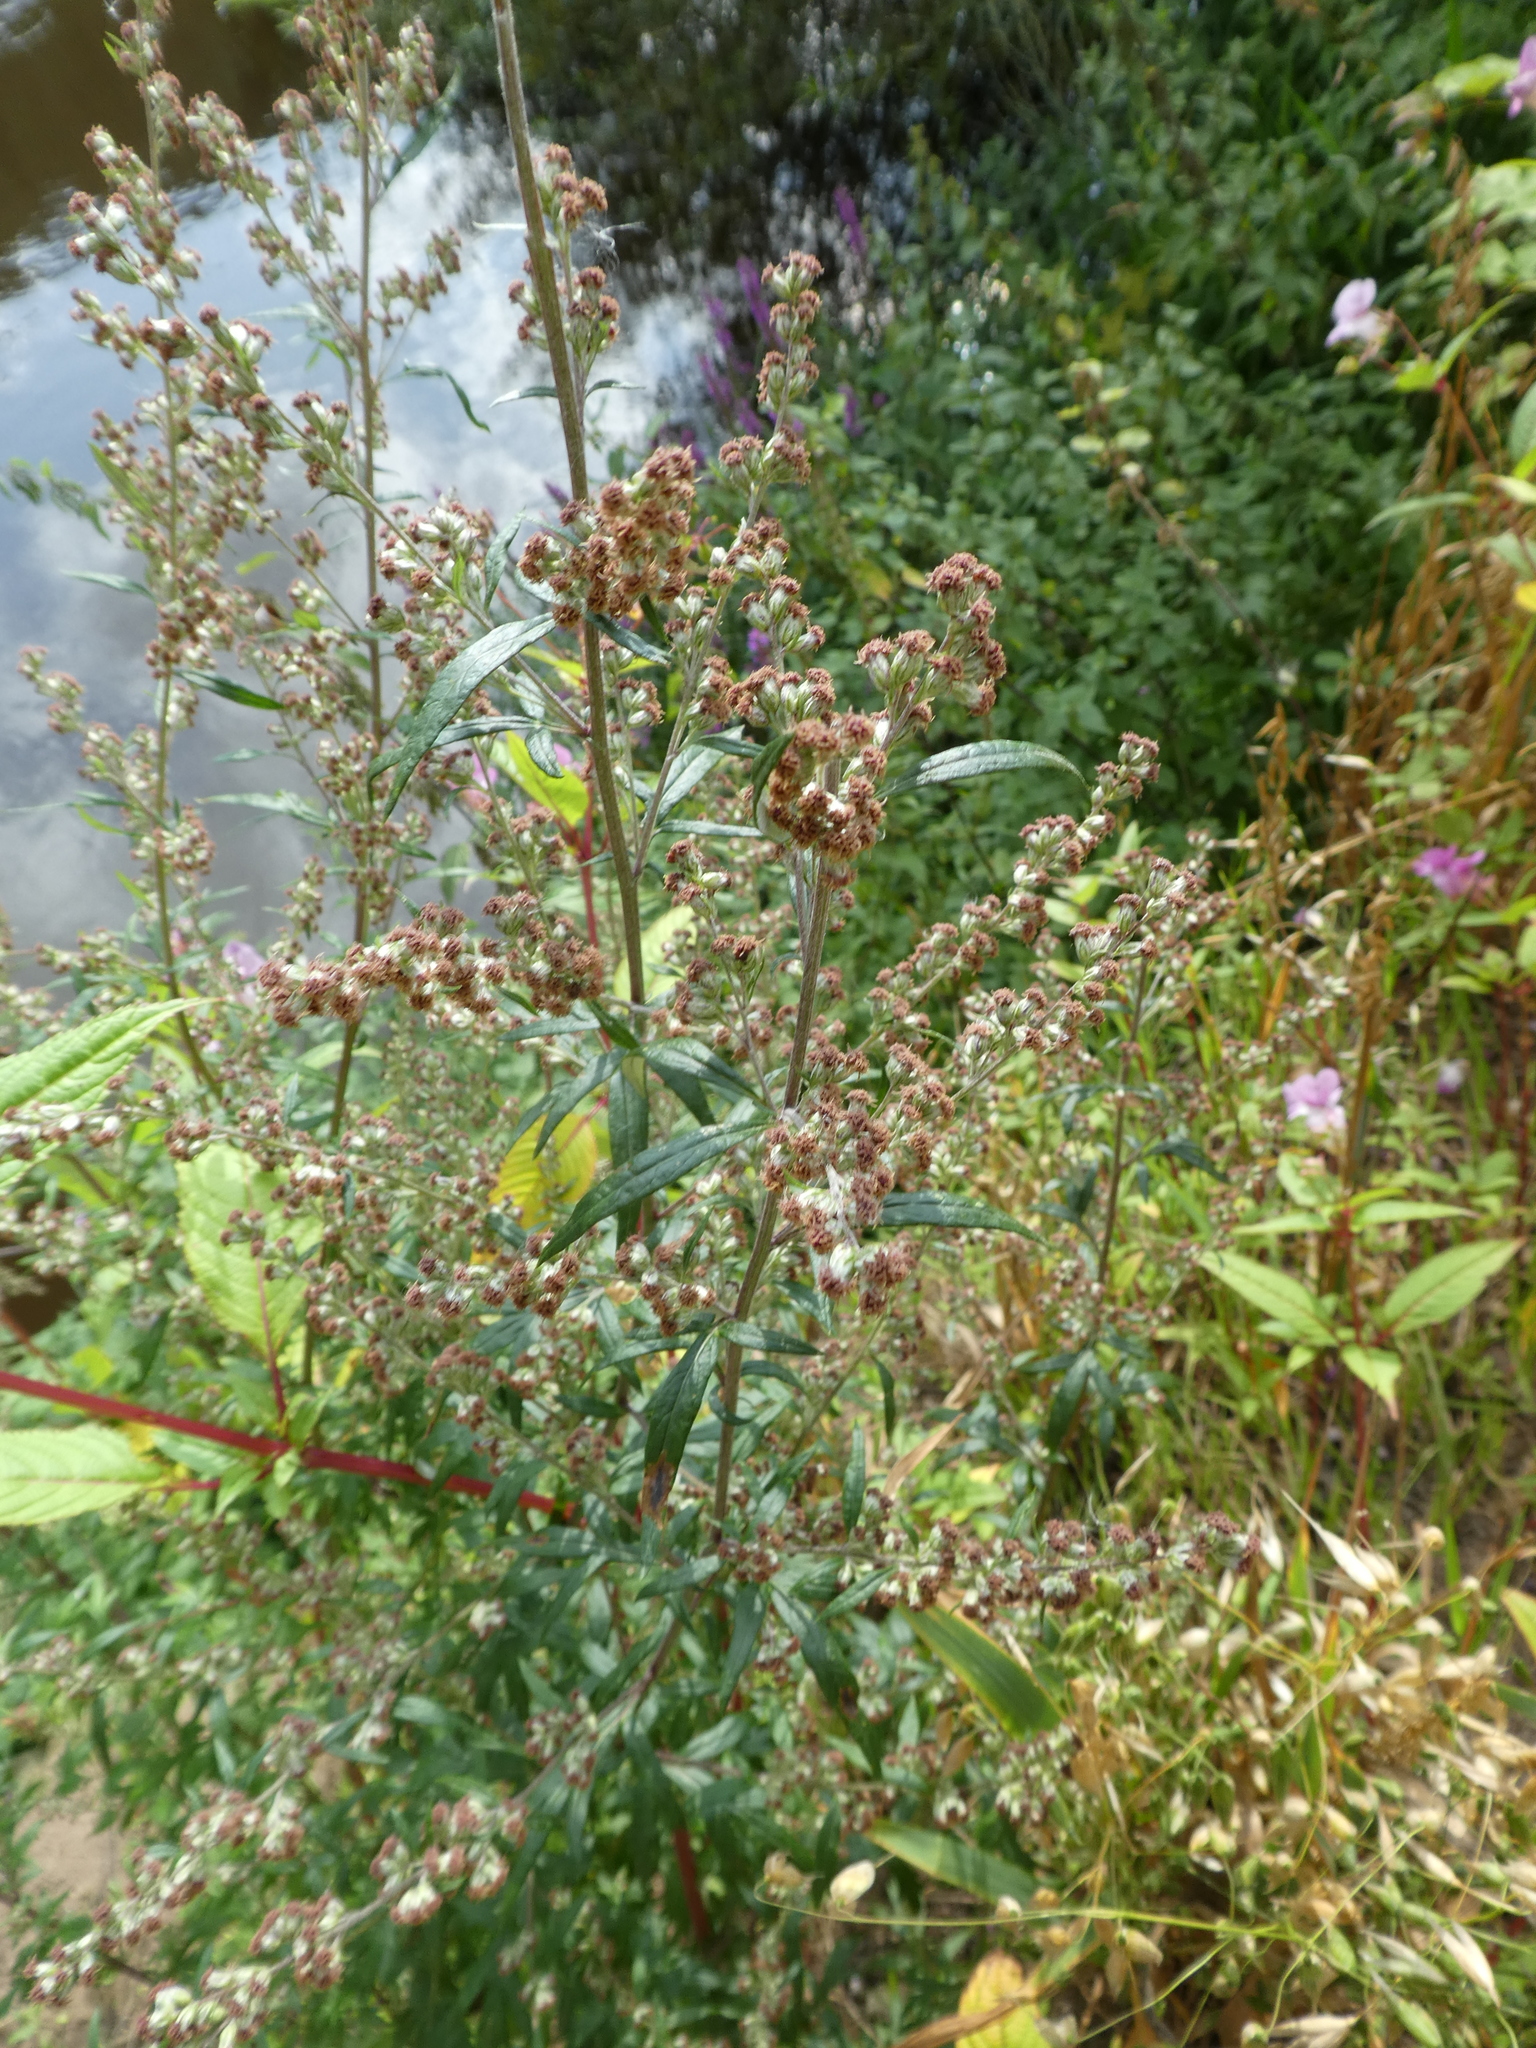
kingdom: Plantae
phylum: Tracheophyta
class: Magnoliopsida
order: Asterales
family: Asteraceae
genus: Artemisia
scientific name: Artemisia vulgaris
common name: Mugwort
